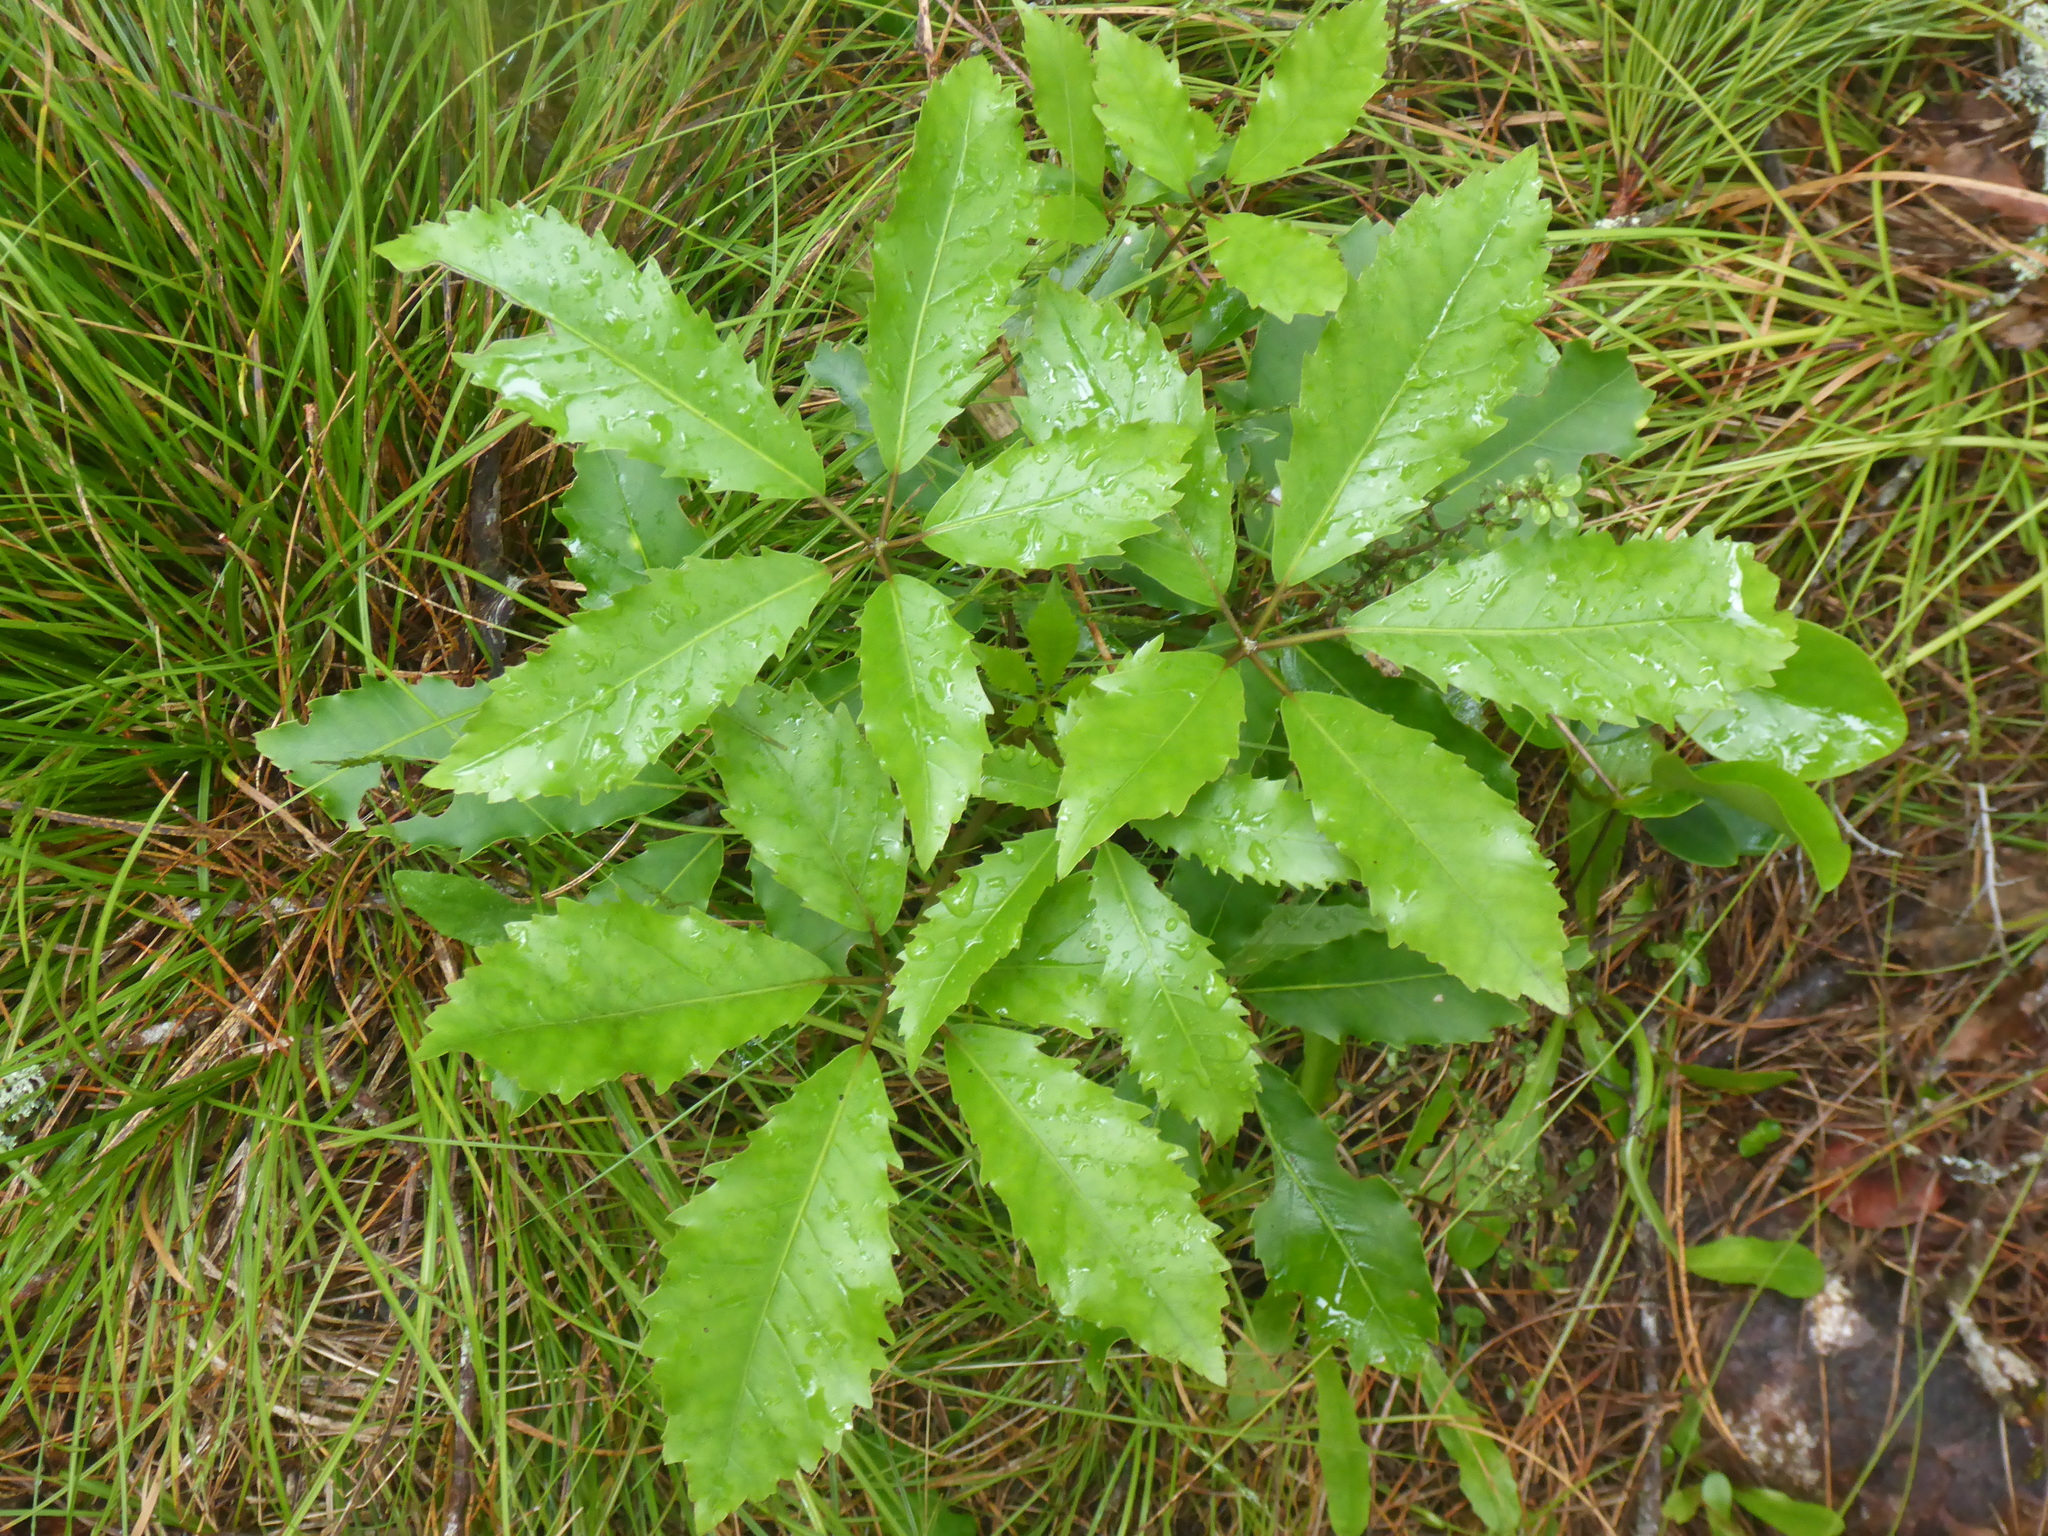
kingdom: Plantae
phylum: Tracheophyta
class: Magnoliopsida
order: Apiales
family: Araliaceae
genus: Neopanax
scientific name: Neopanax arboreus
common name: Five-fingers
